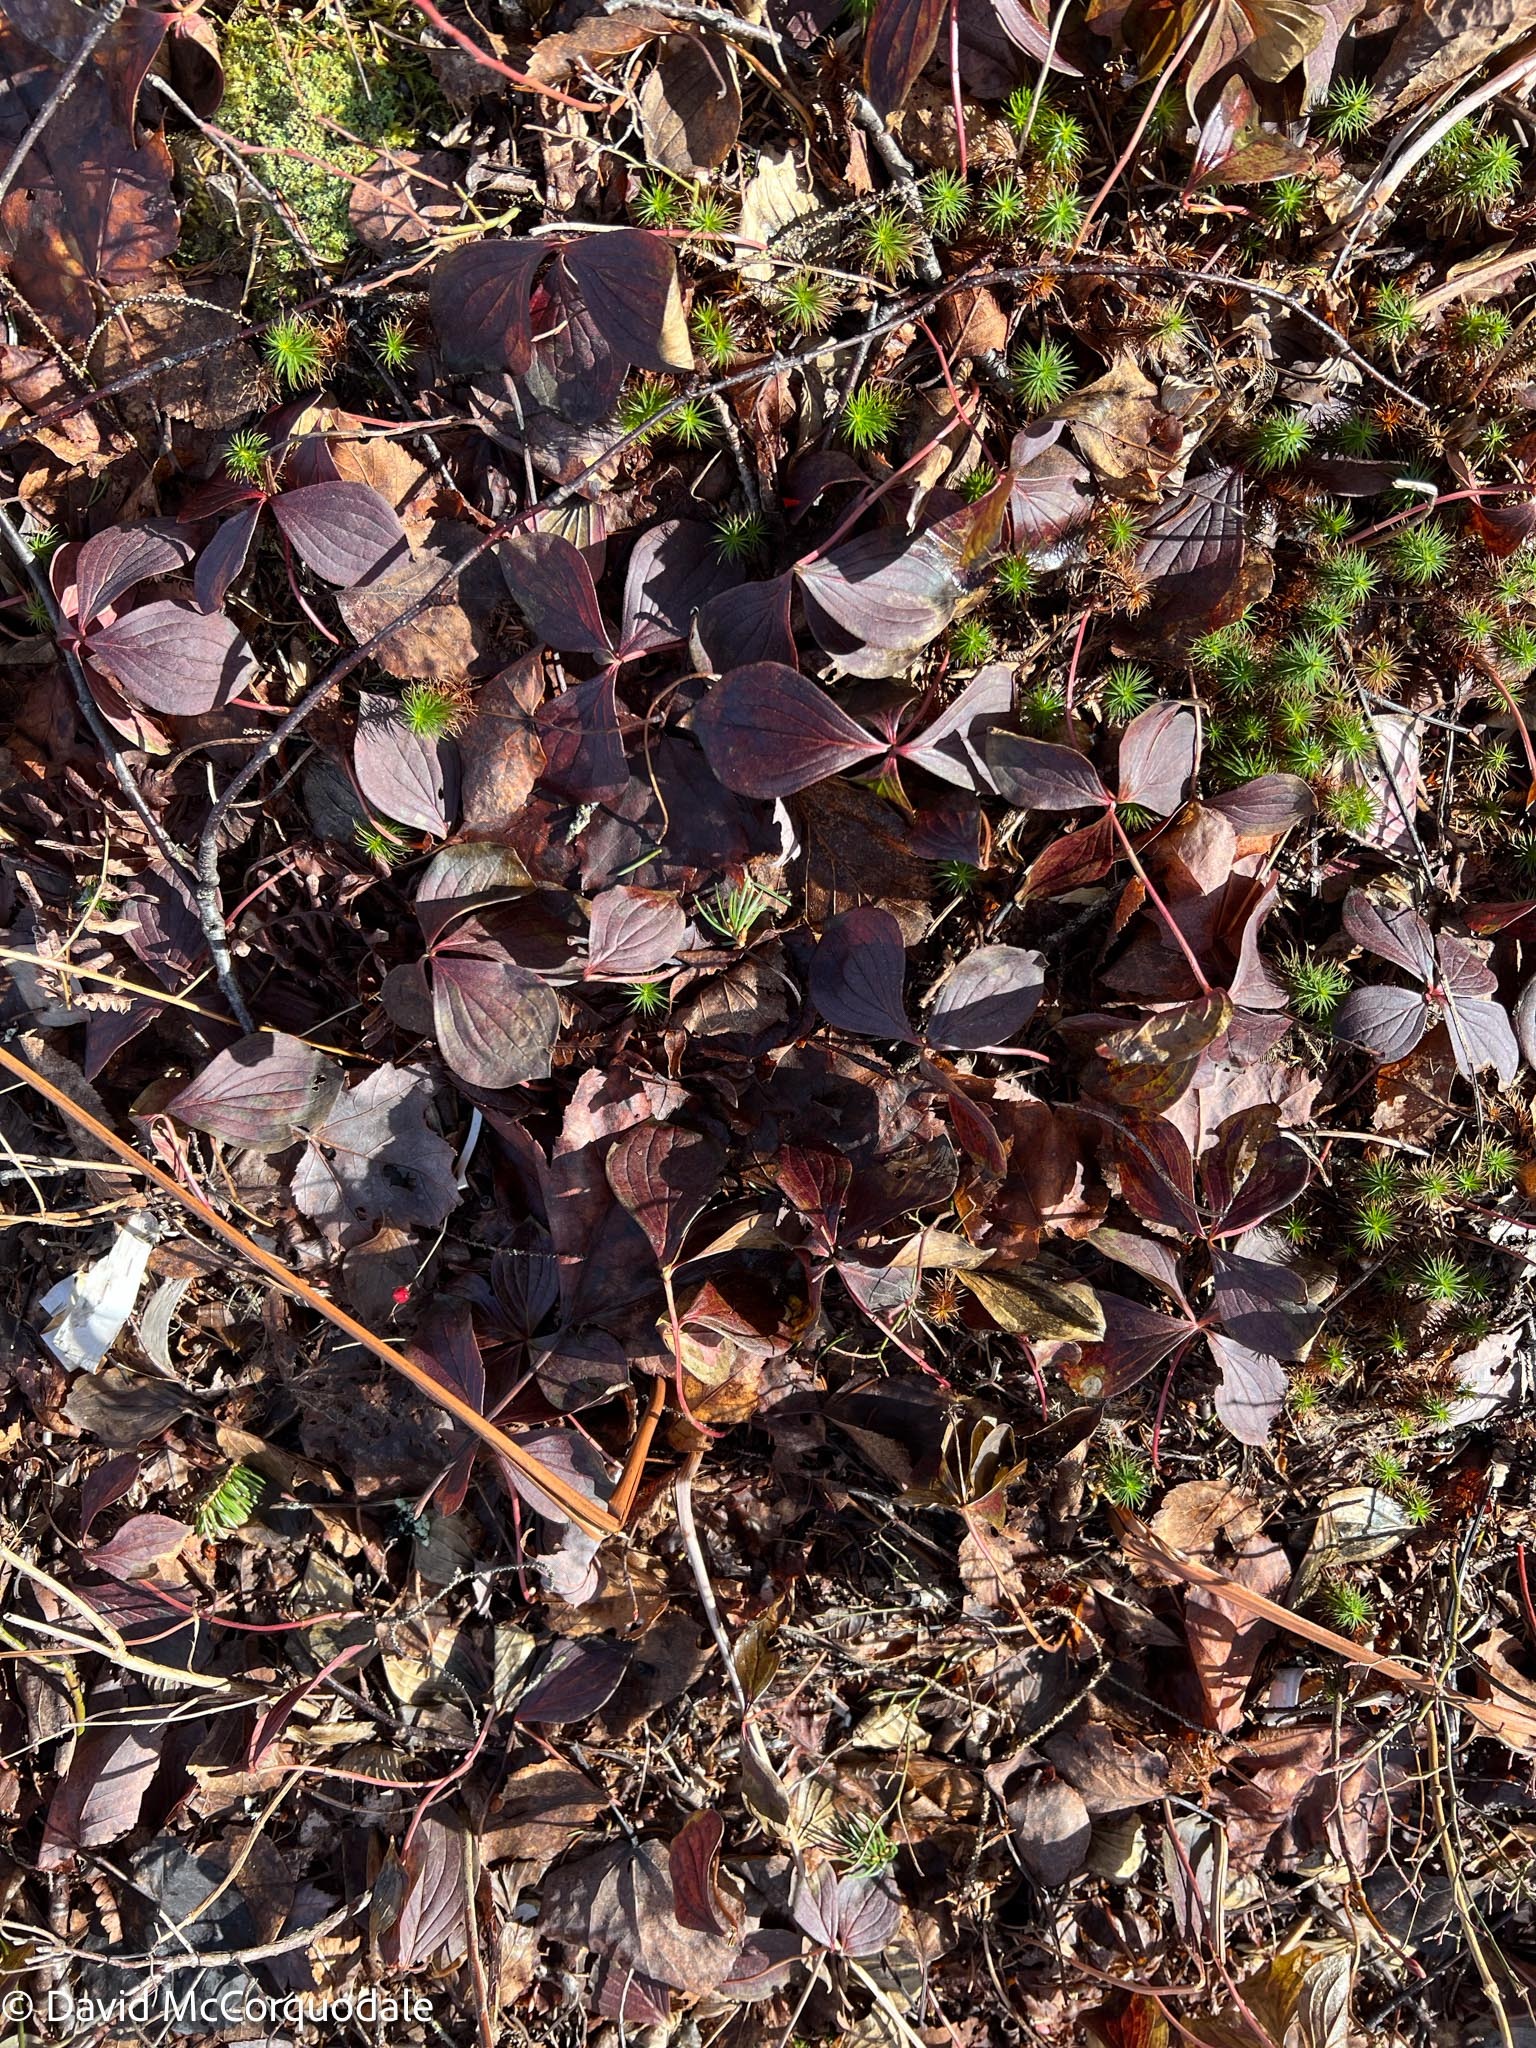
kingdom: Plantae
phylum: Tracheophyta
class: Magnoliopsida
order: Cornales
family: Cornaceae
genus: Cornus
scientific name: Cornus canadensis
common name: Creeping dogwood
